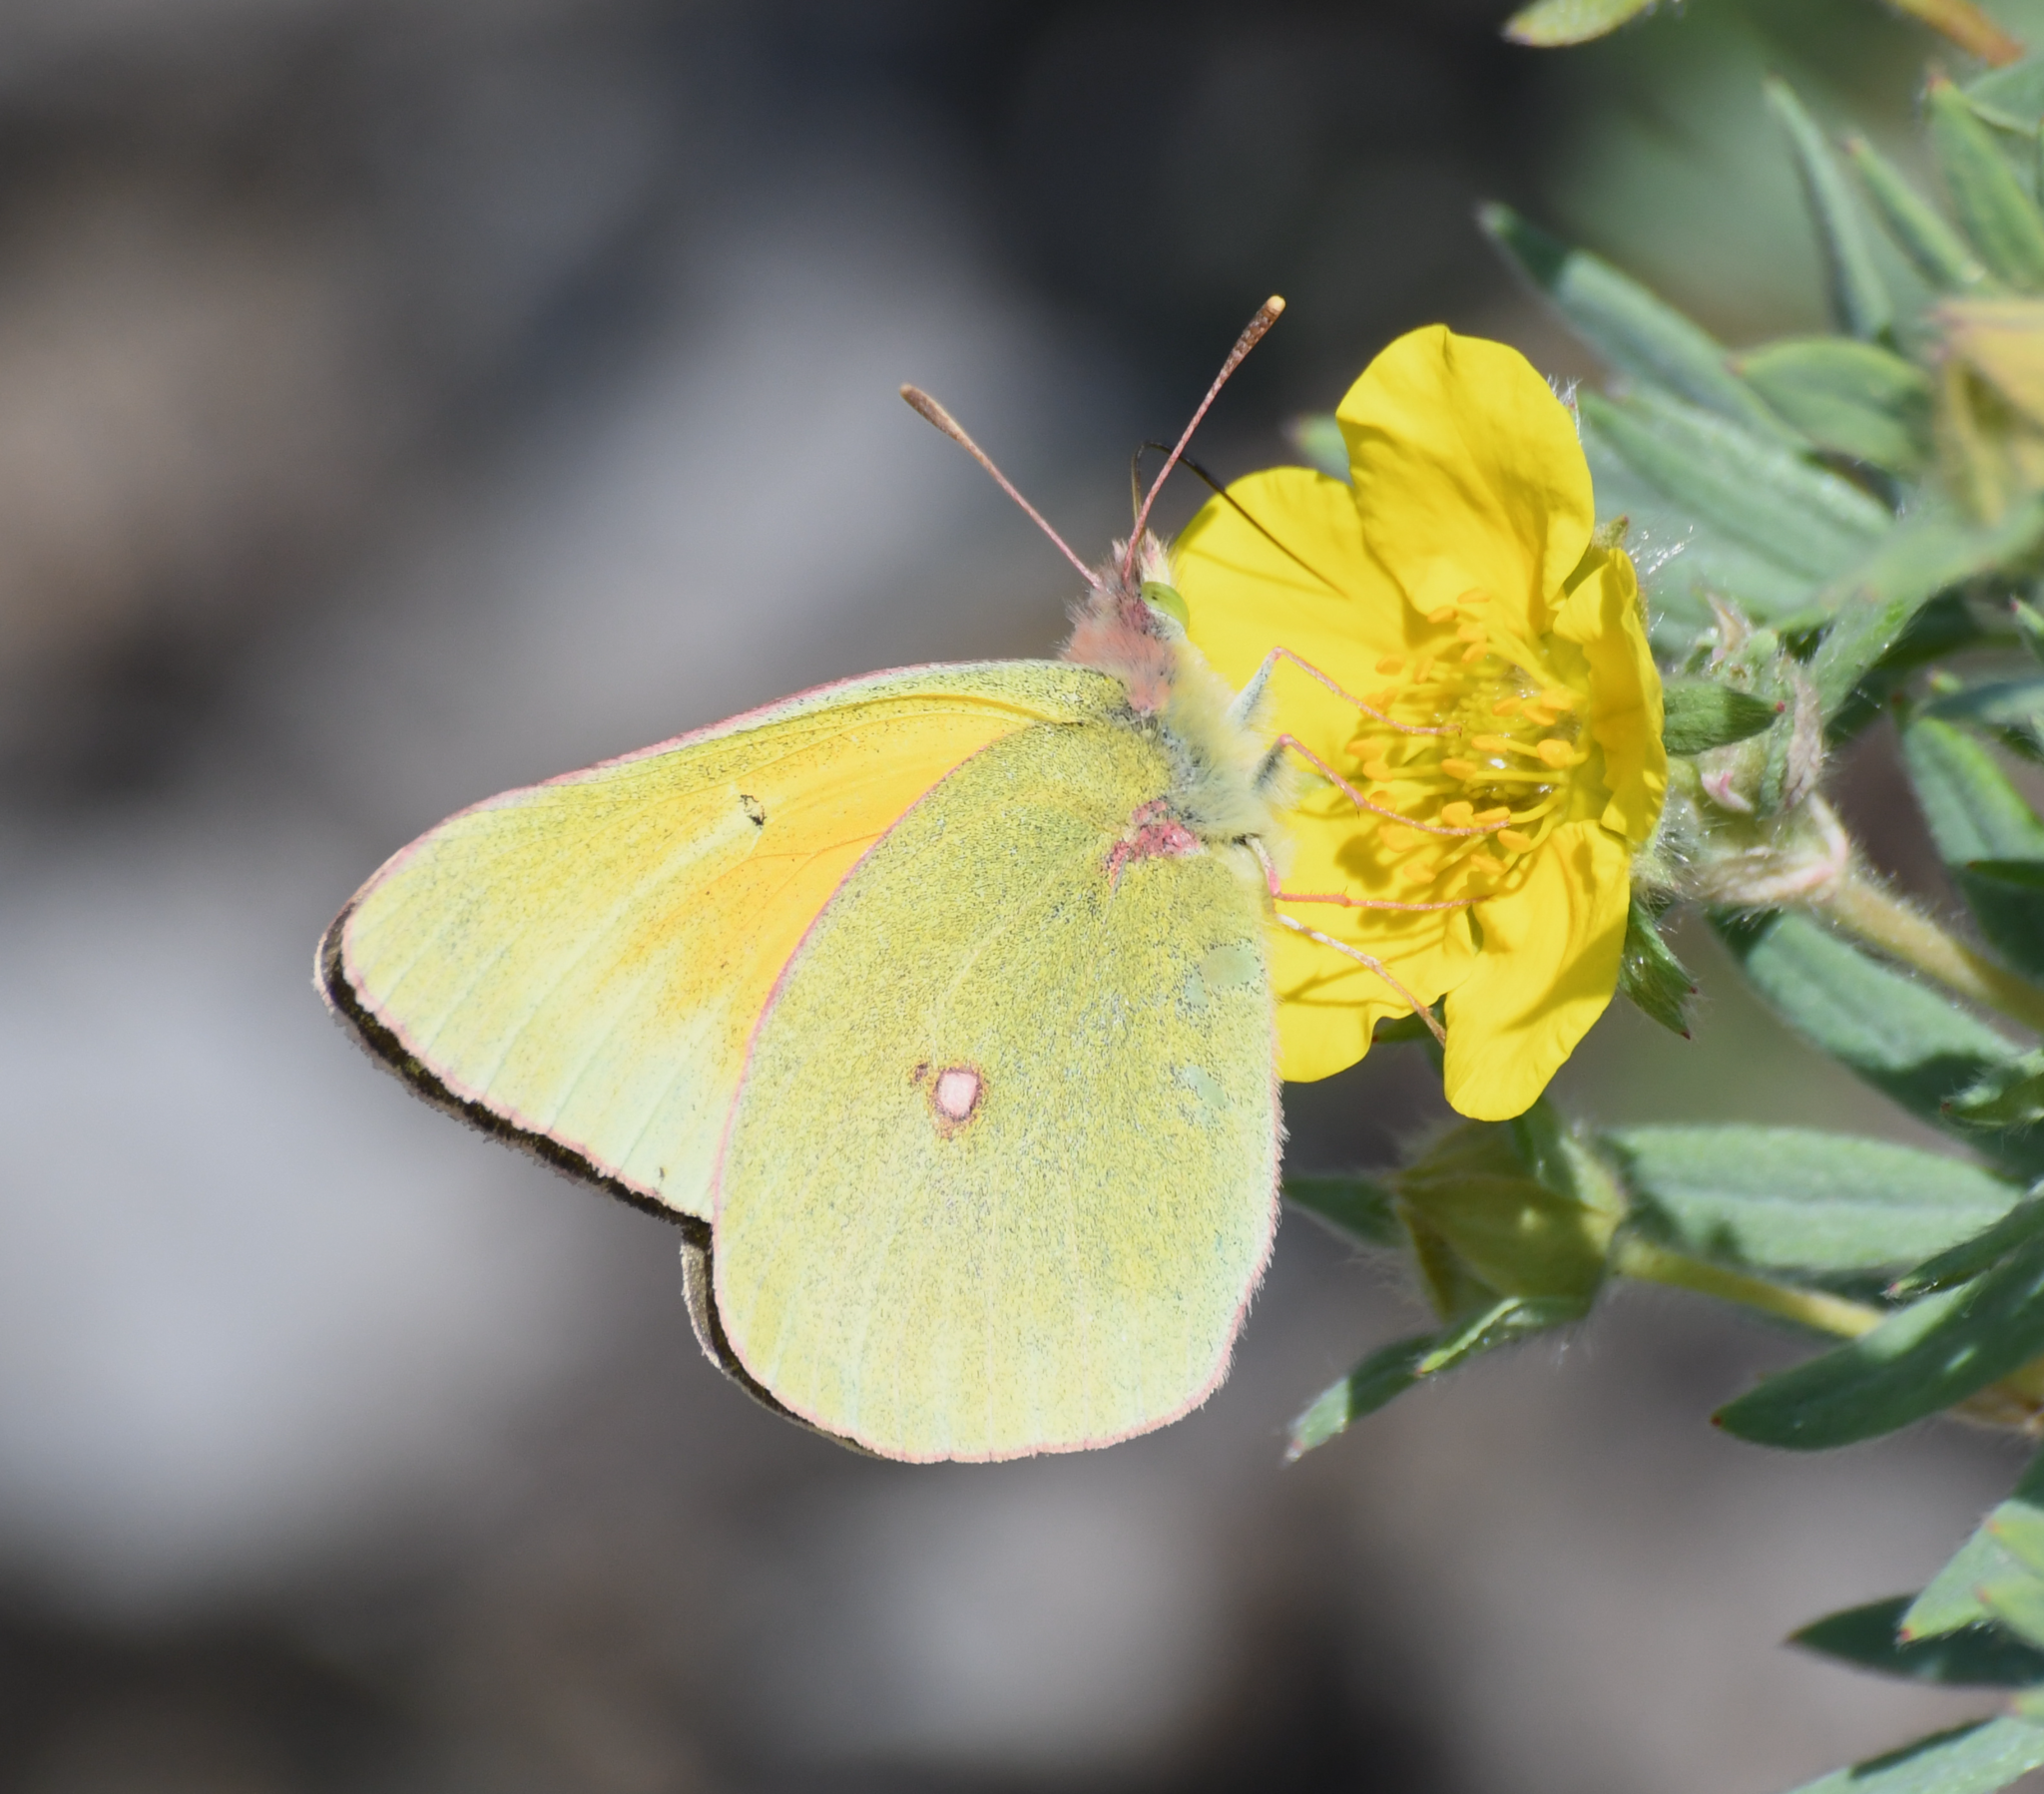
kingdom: Animalia
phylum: Arthropoda
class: Insecta
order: Lepidoptera
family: Pieridae
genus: Colias
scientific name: Colias christina
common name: Christina sulphur
